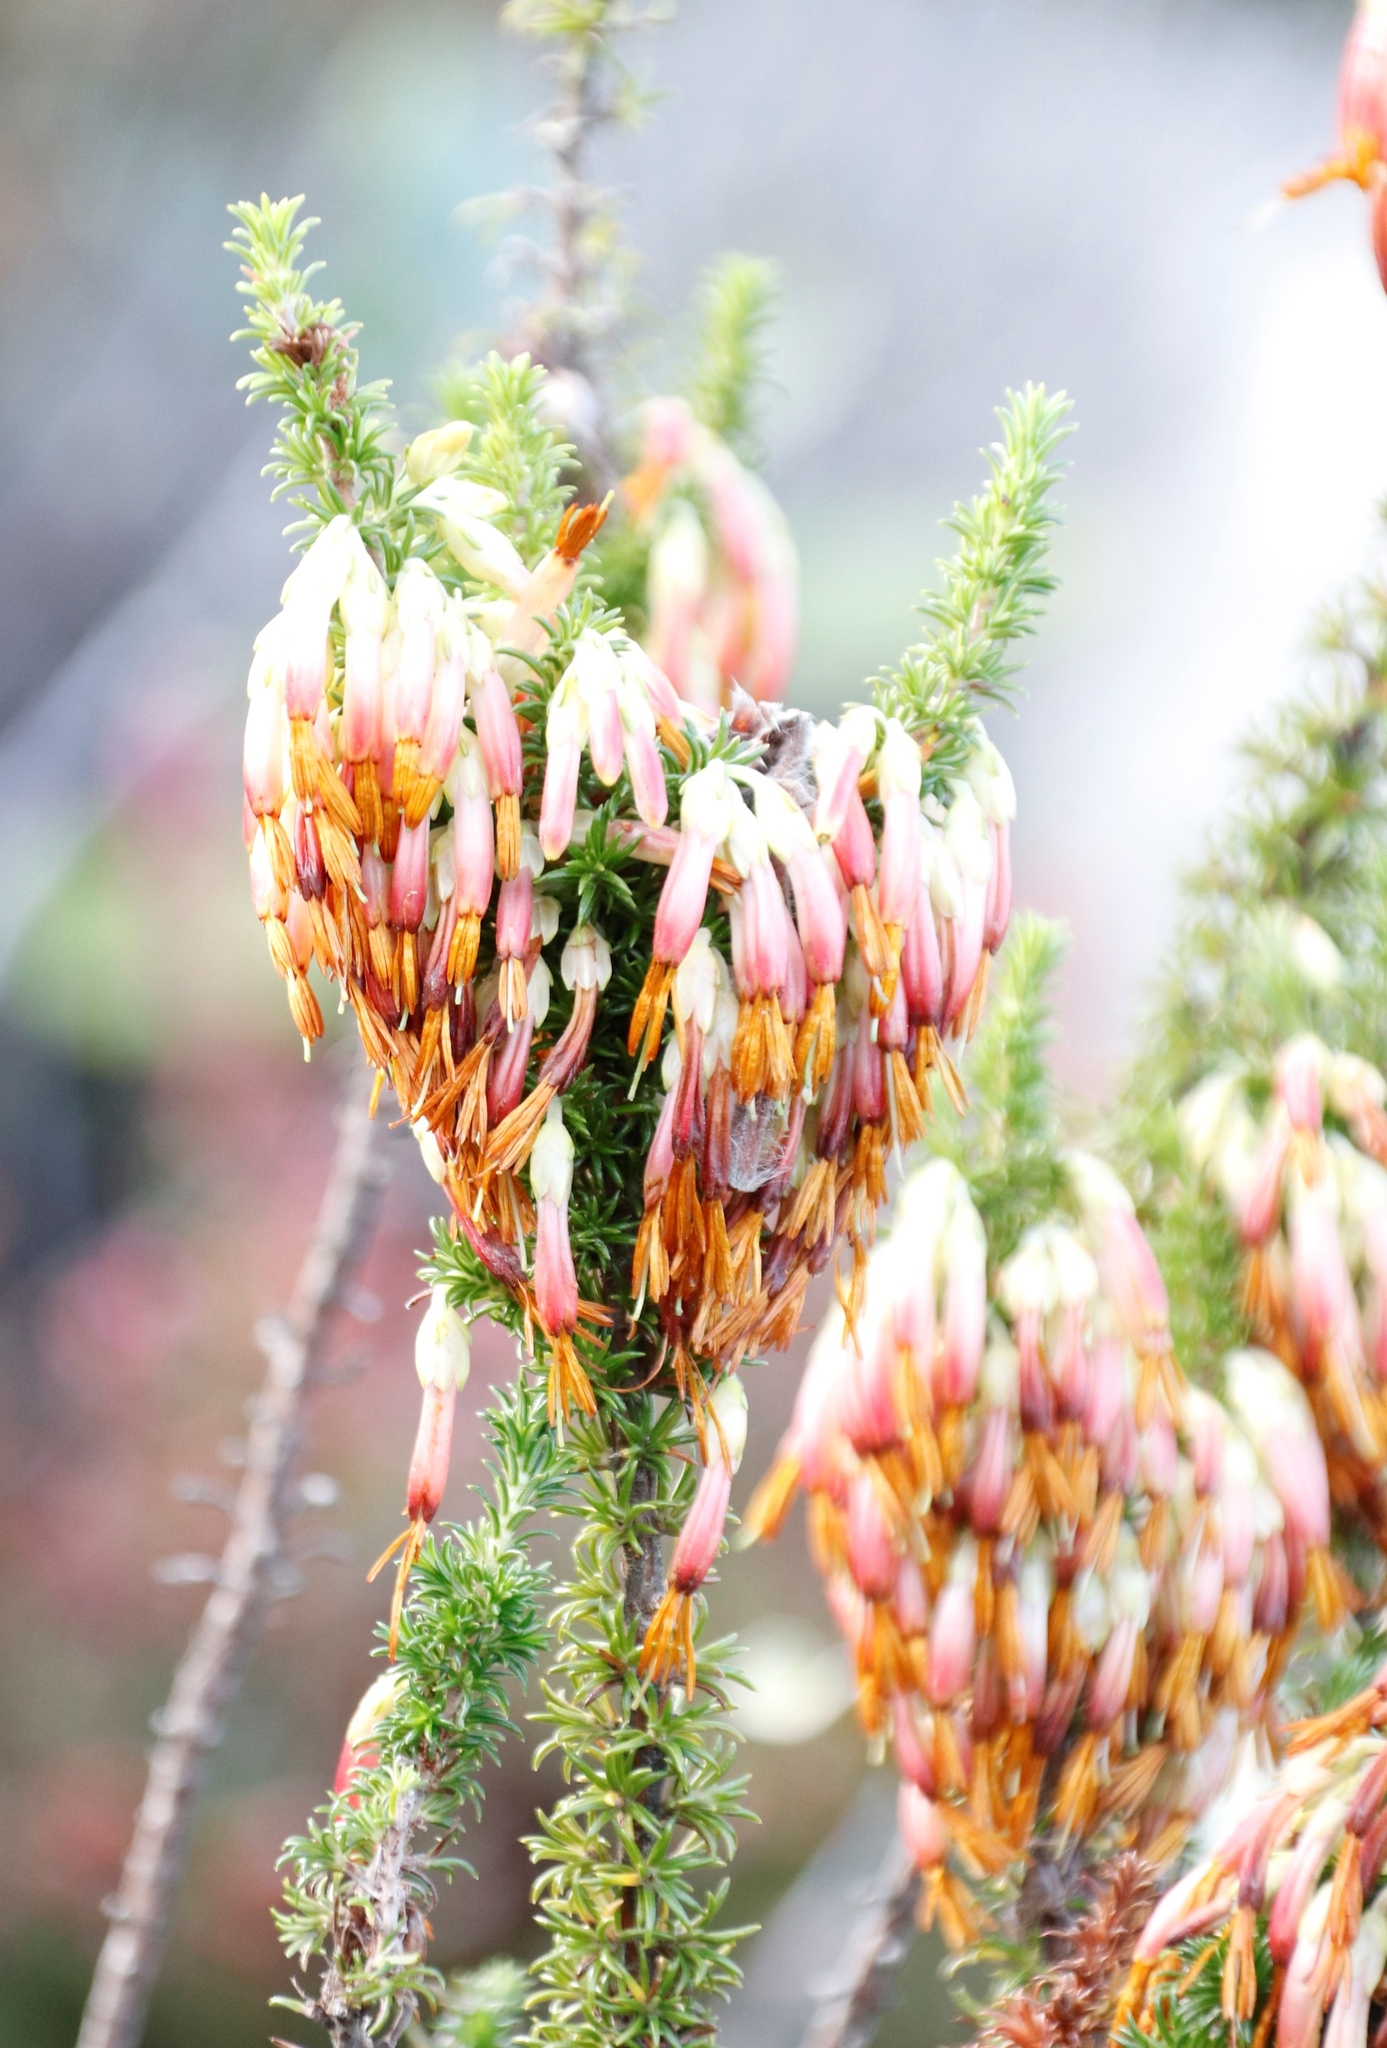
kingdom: Plantae
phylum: Tracheophyta
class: Magnoliopsida
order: Ericales
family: Ericaceae
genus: Erica
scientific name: Erica coccinea
